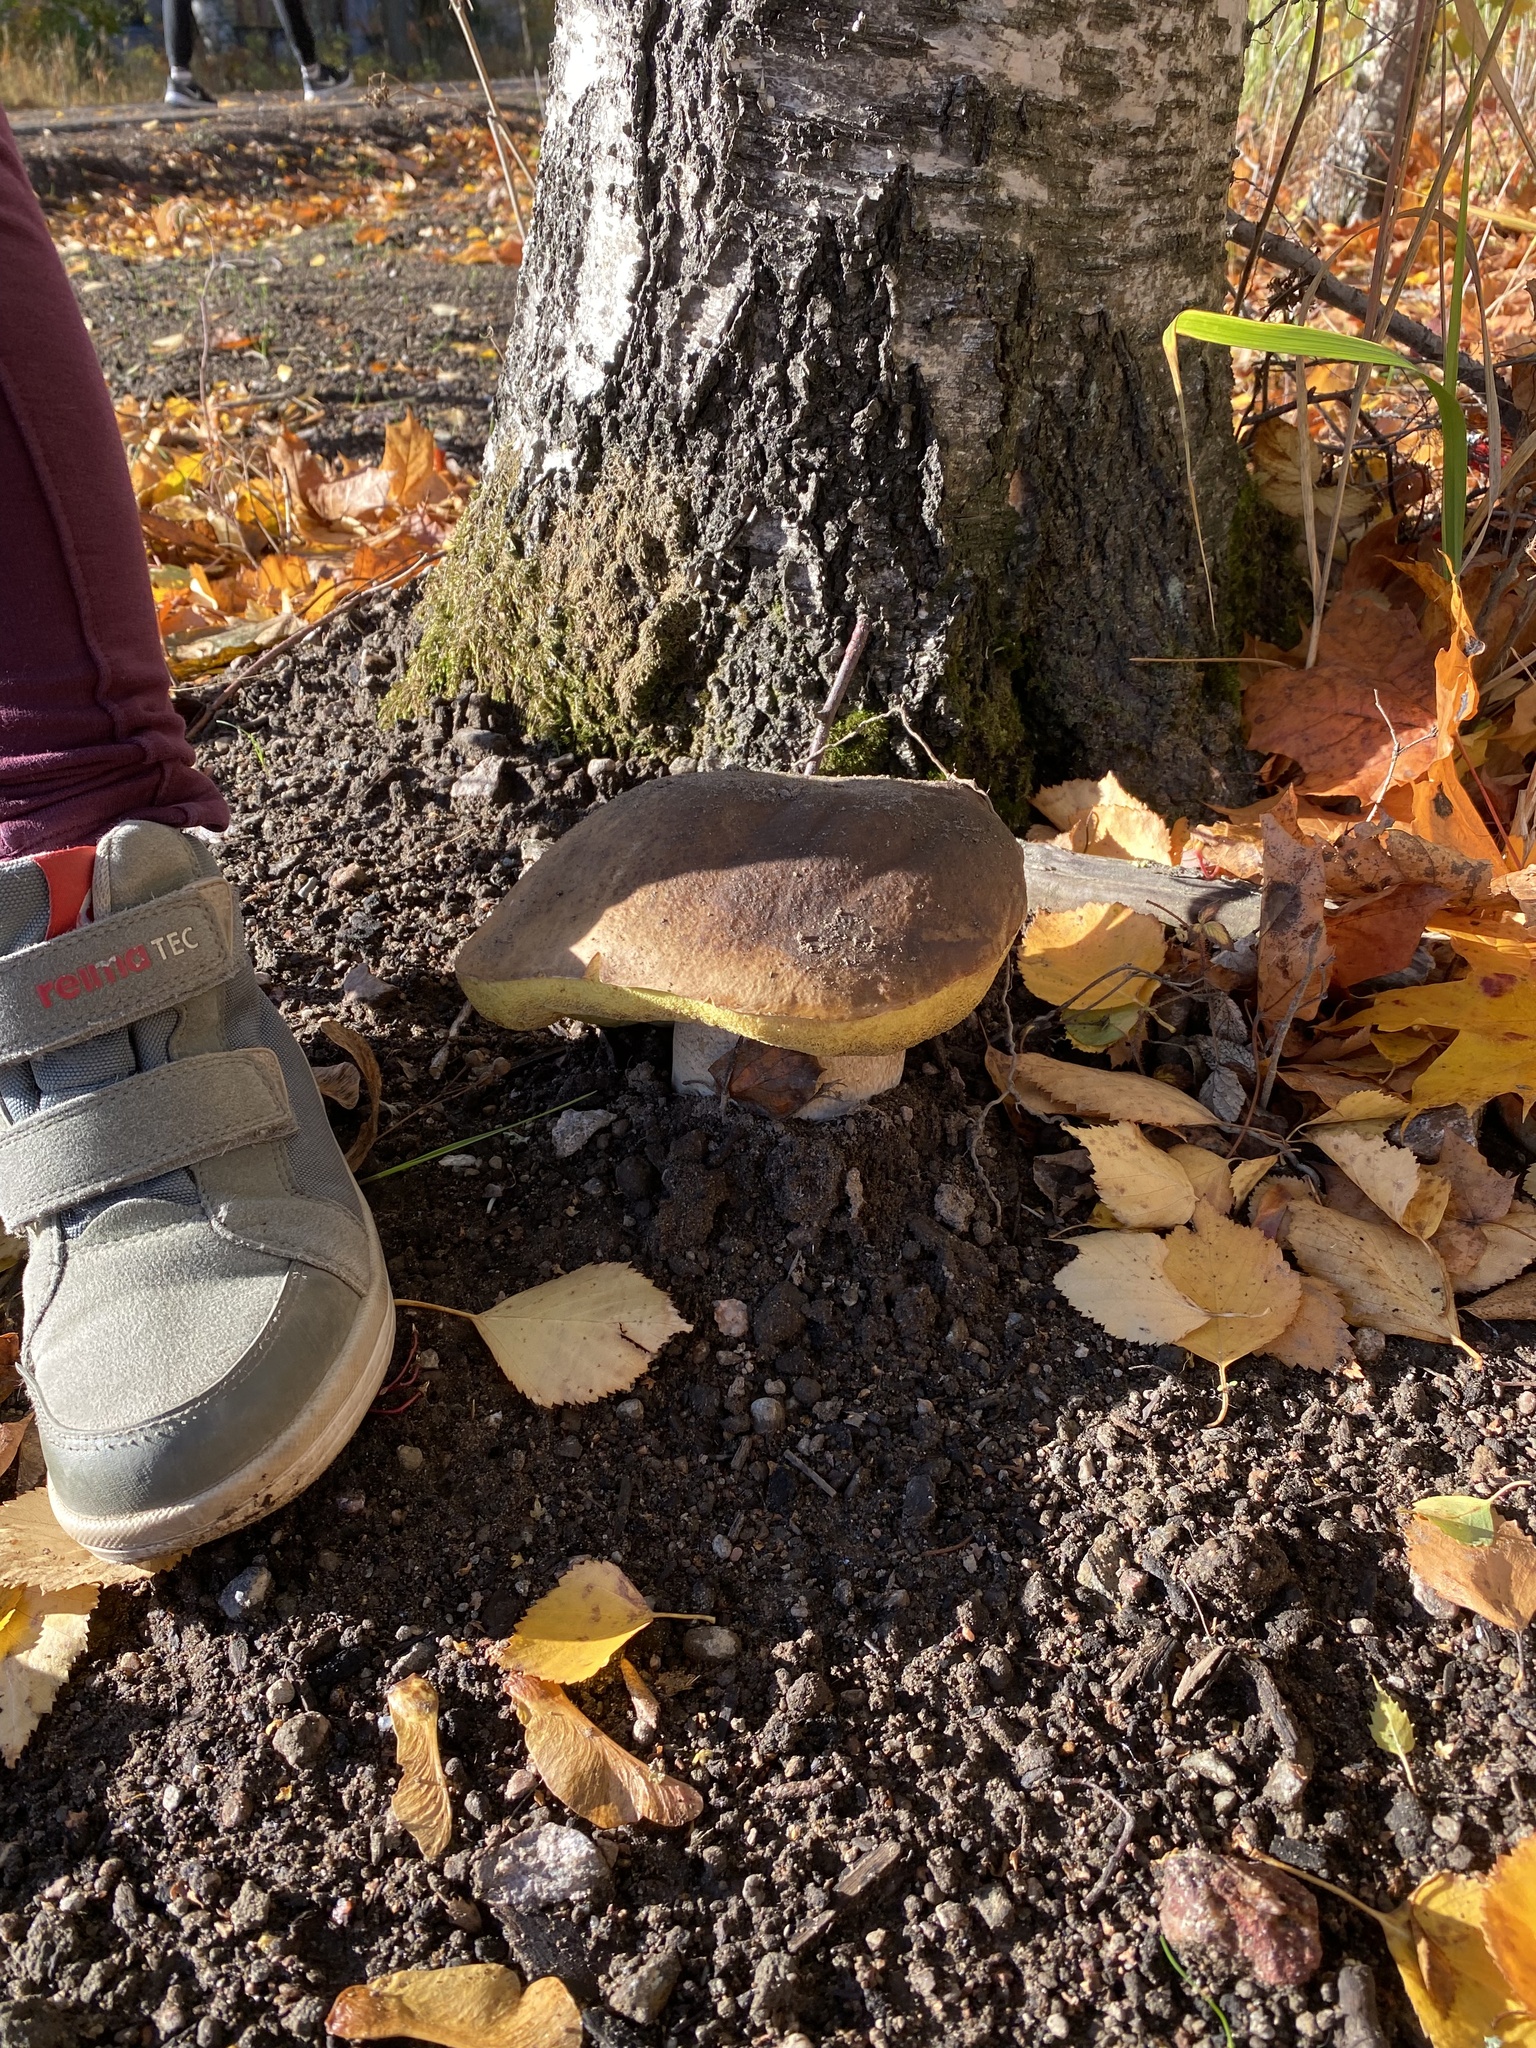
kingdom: Fungi
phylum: Basidiomycota
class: Agaricomycetes
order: Boletales
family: Boletaceae
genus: Boletus
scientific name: Boletus edulis
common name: Cep
